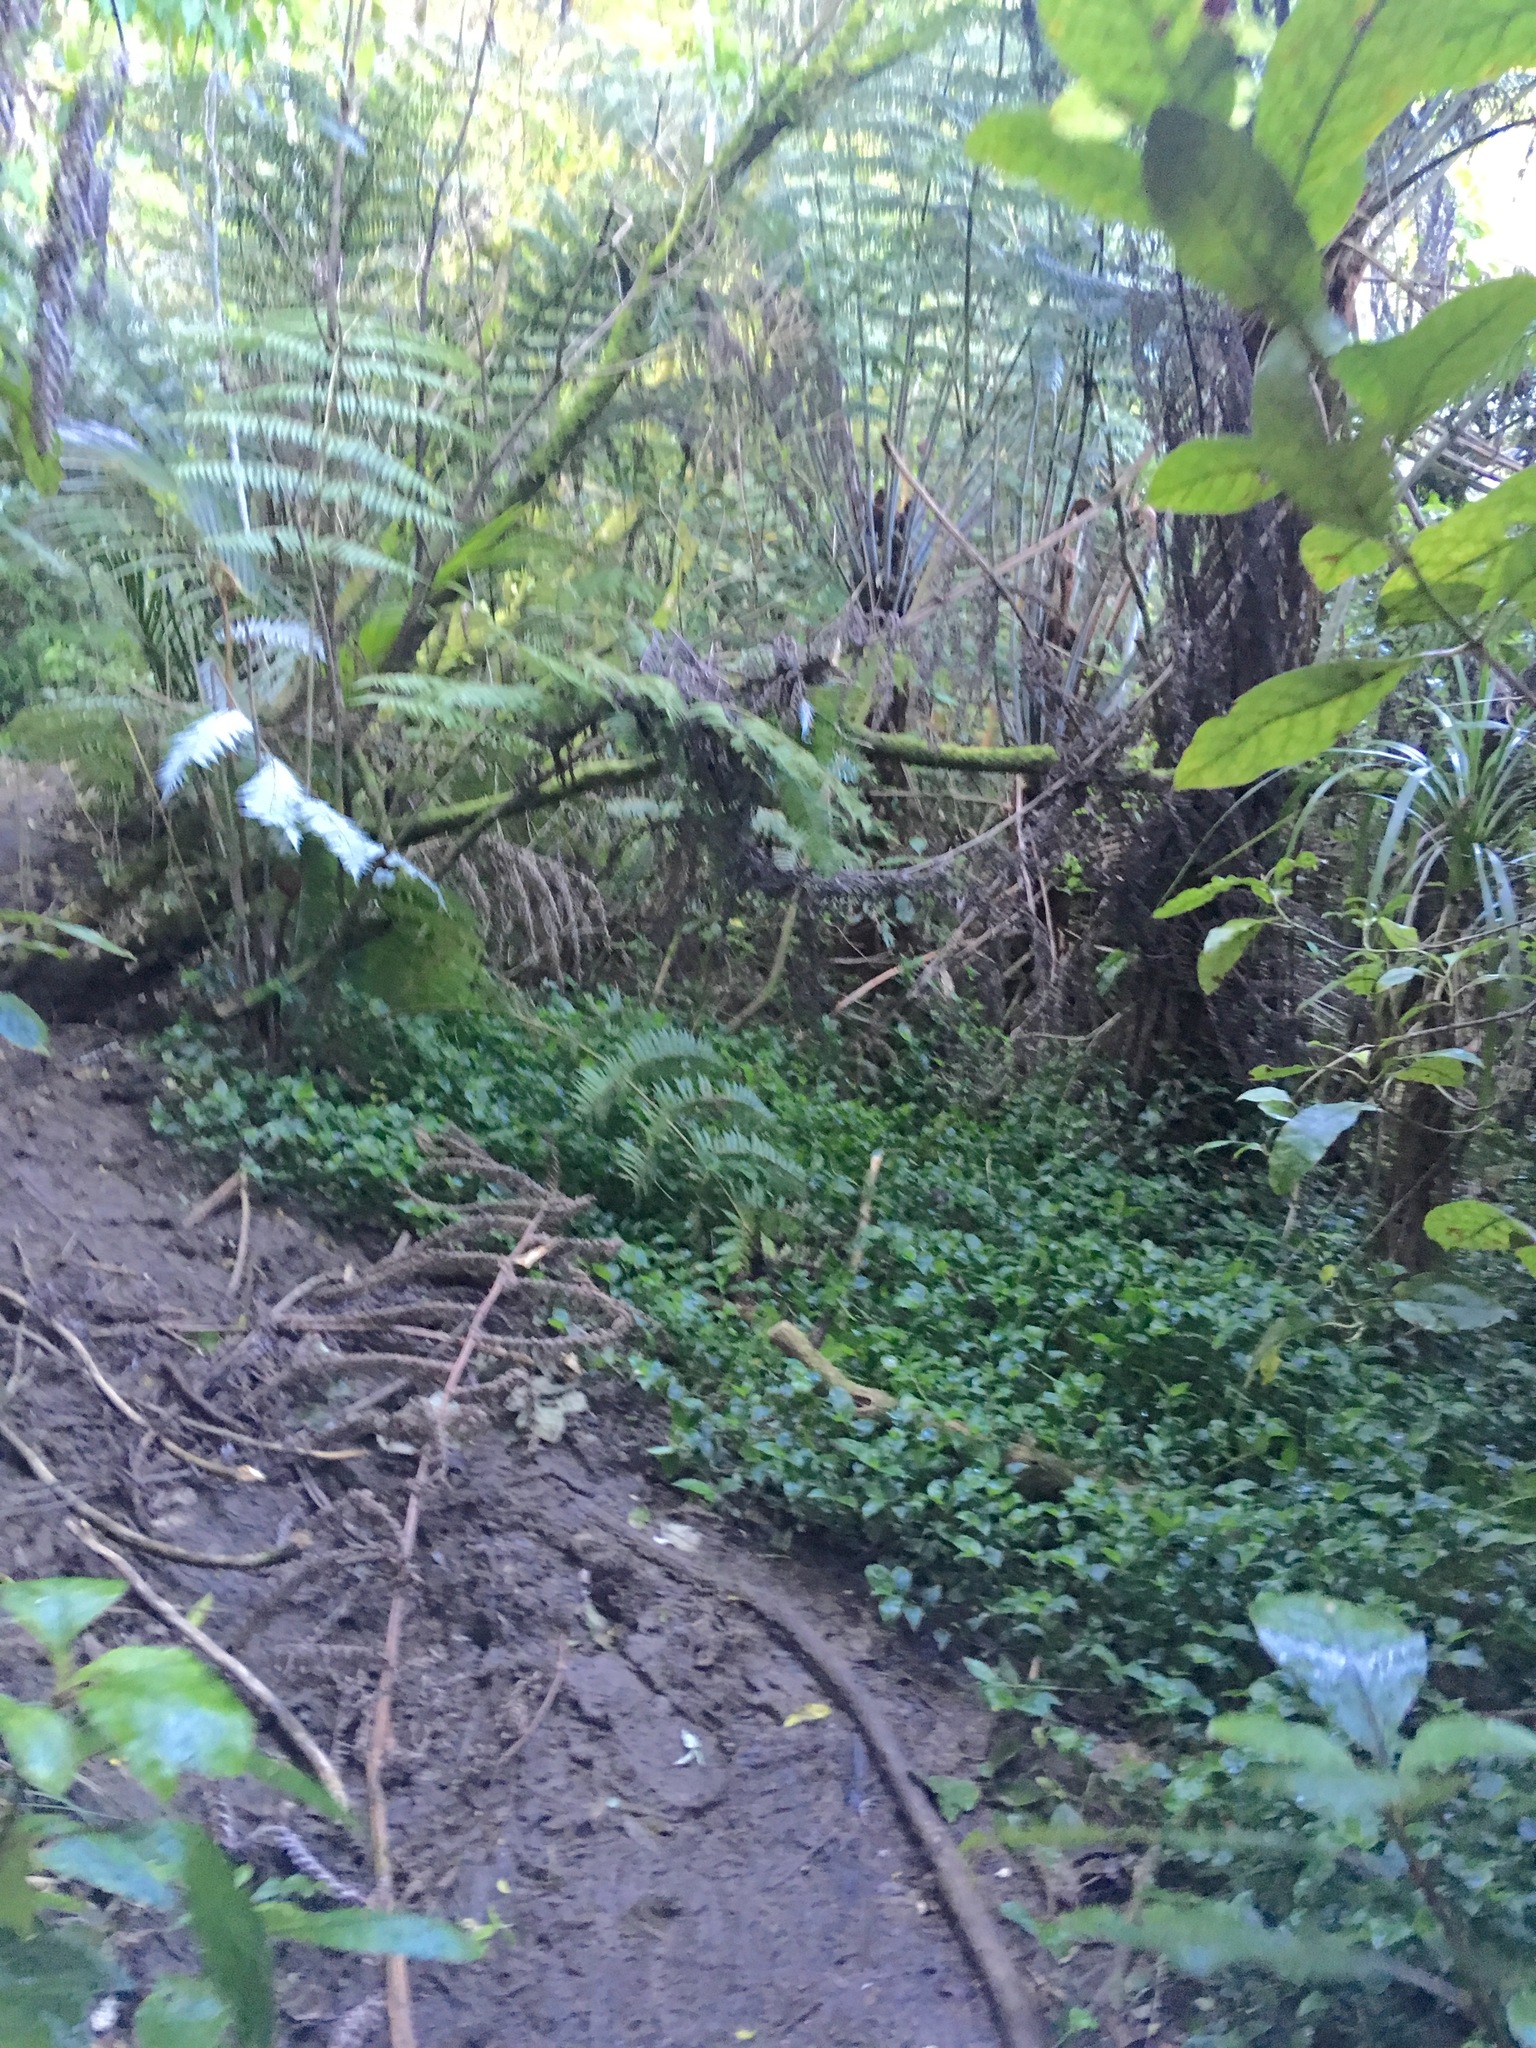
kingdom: Plantae
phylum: Tracheophyta
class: Liliopsida
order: Commelinales
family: Commelinaceae
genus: Tradescantia
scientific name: Tradescantia fluminensis
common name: Wandering-jew
